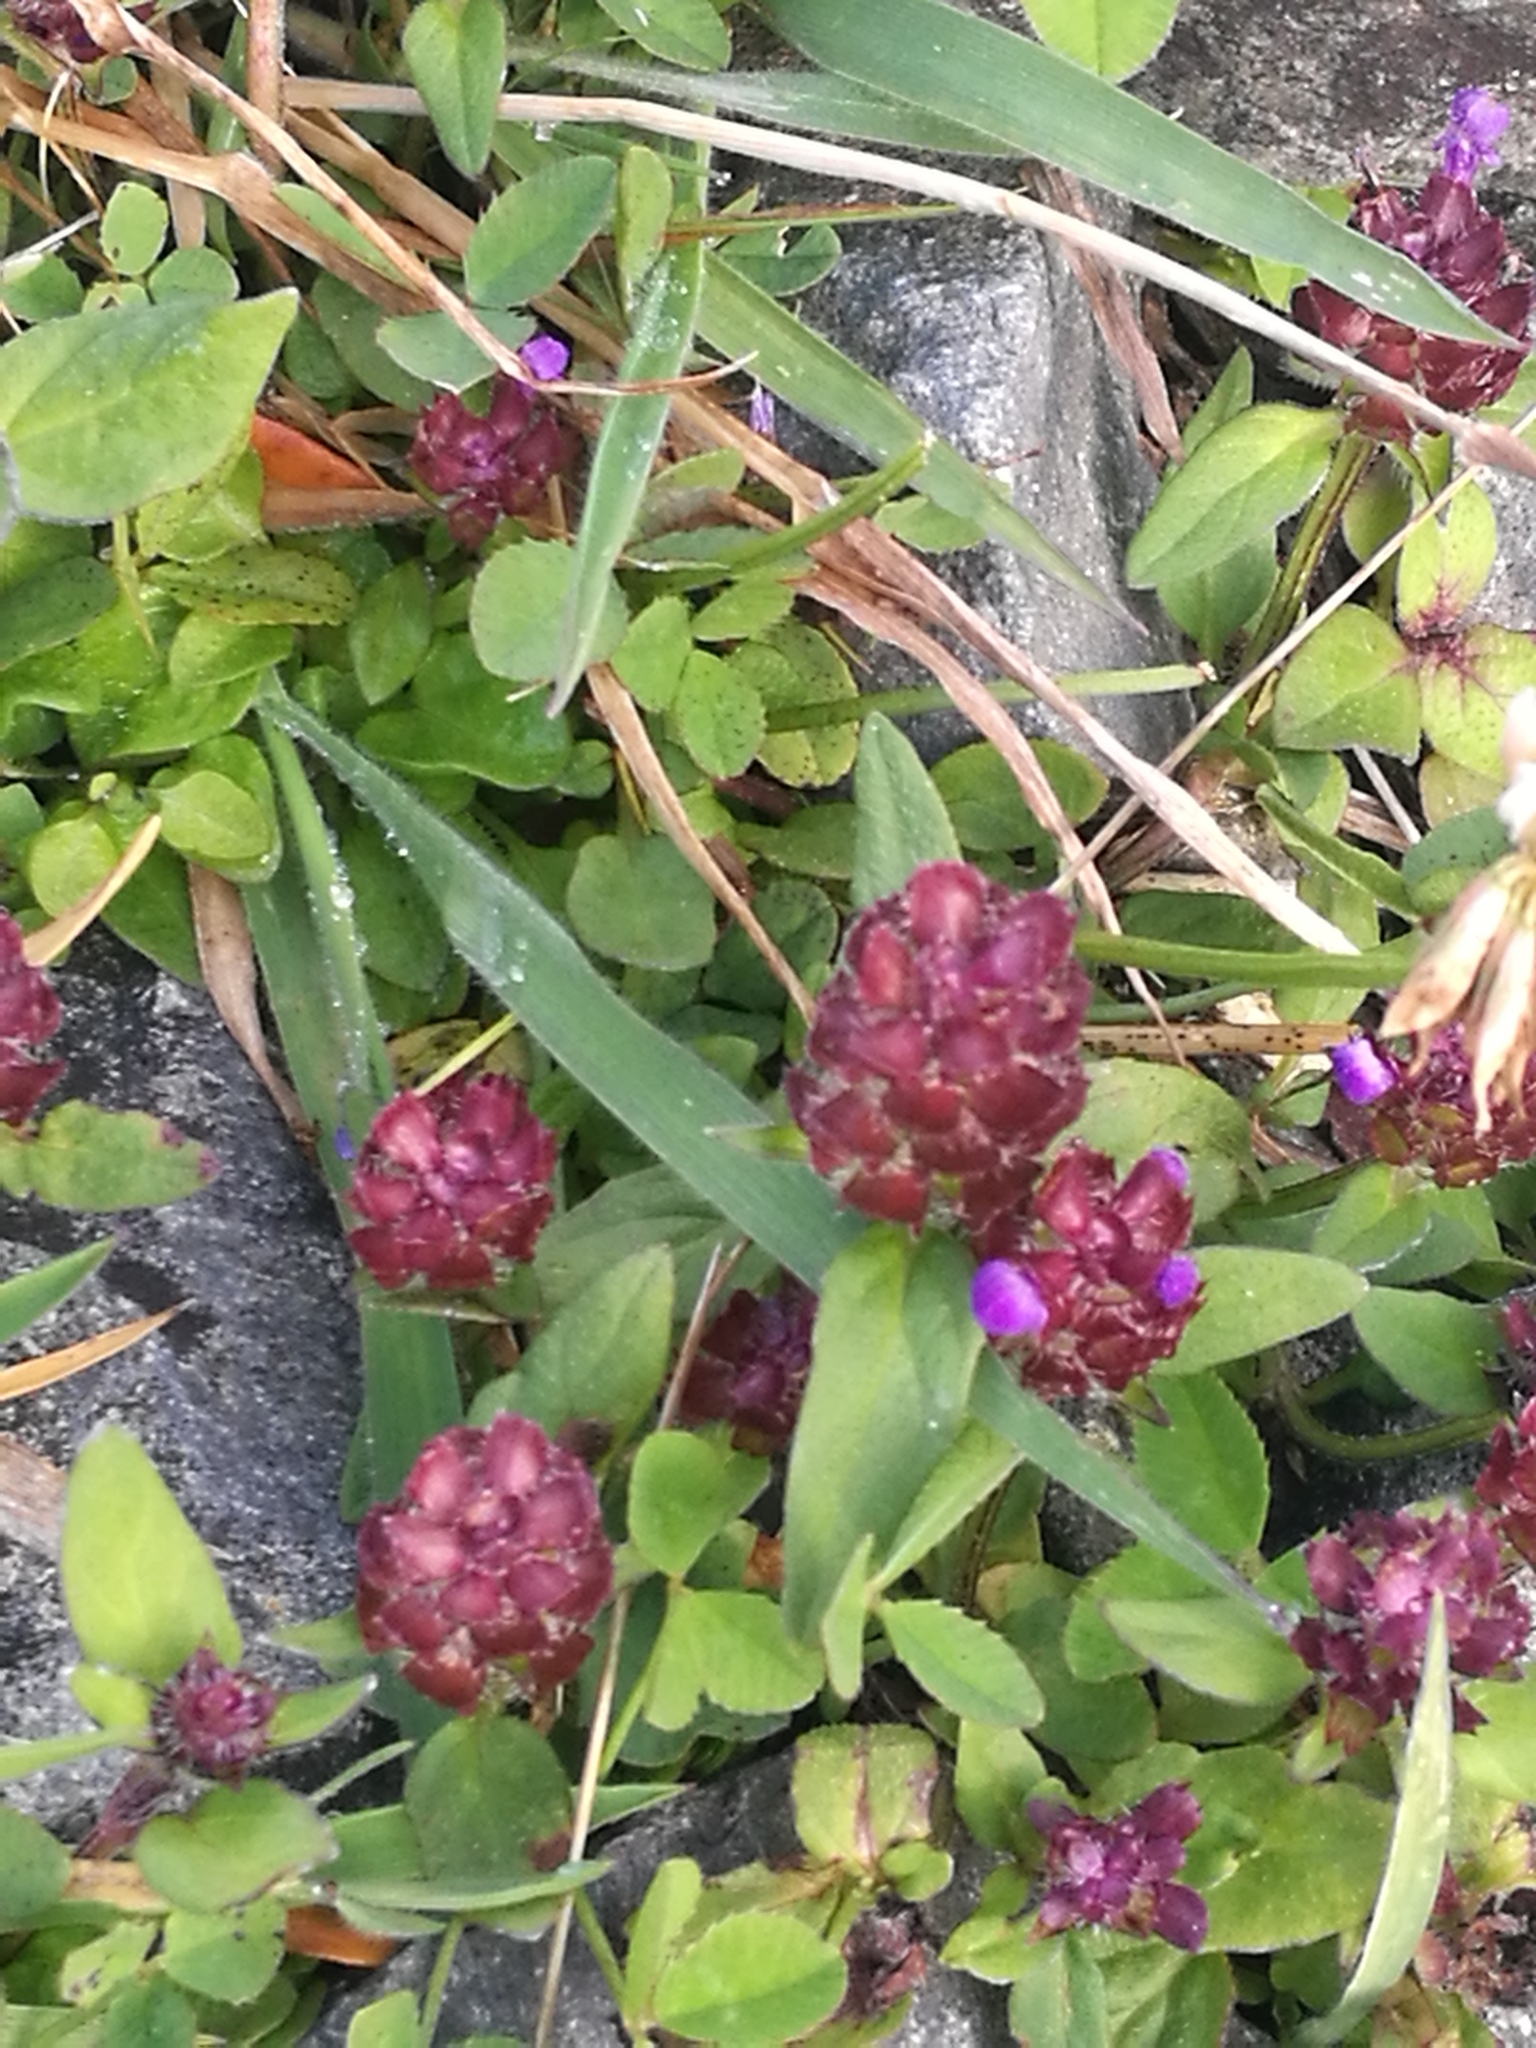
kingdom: Plantae
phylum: Tracheophyta
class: Magnoliopsida
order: Lamiales
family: Lamiaceae
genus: Prunella
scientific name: Prunella vulgaris
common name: Heal-all
